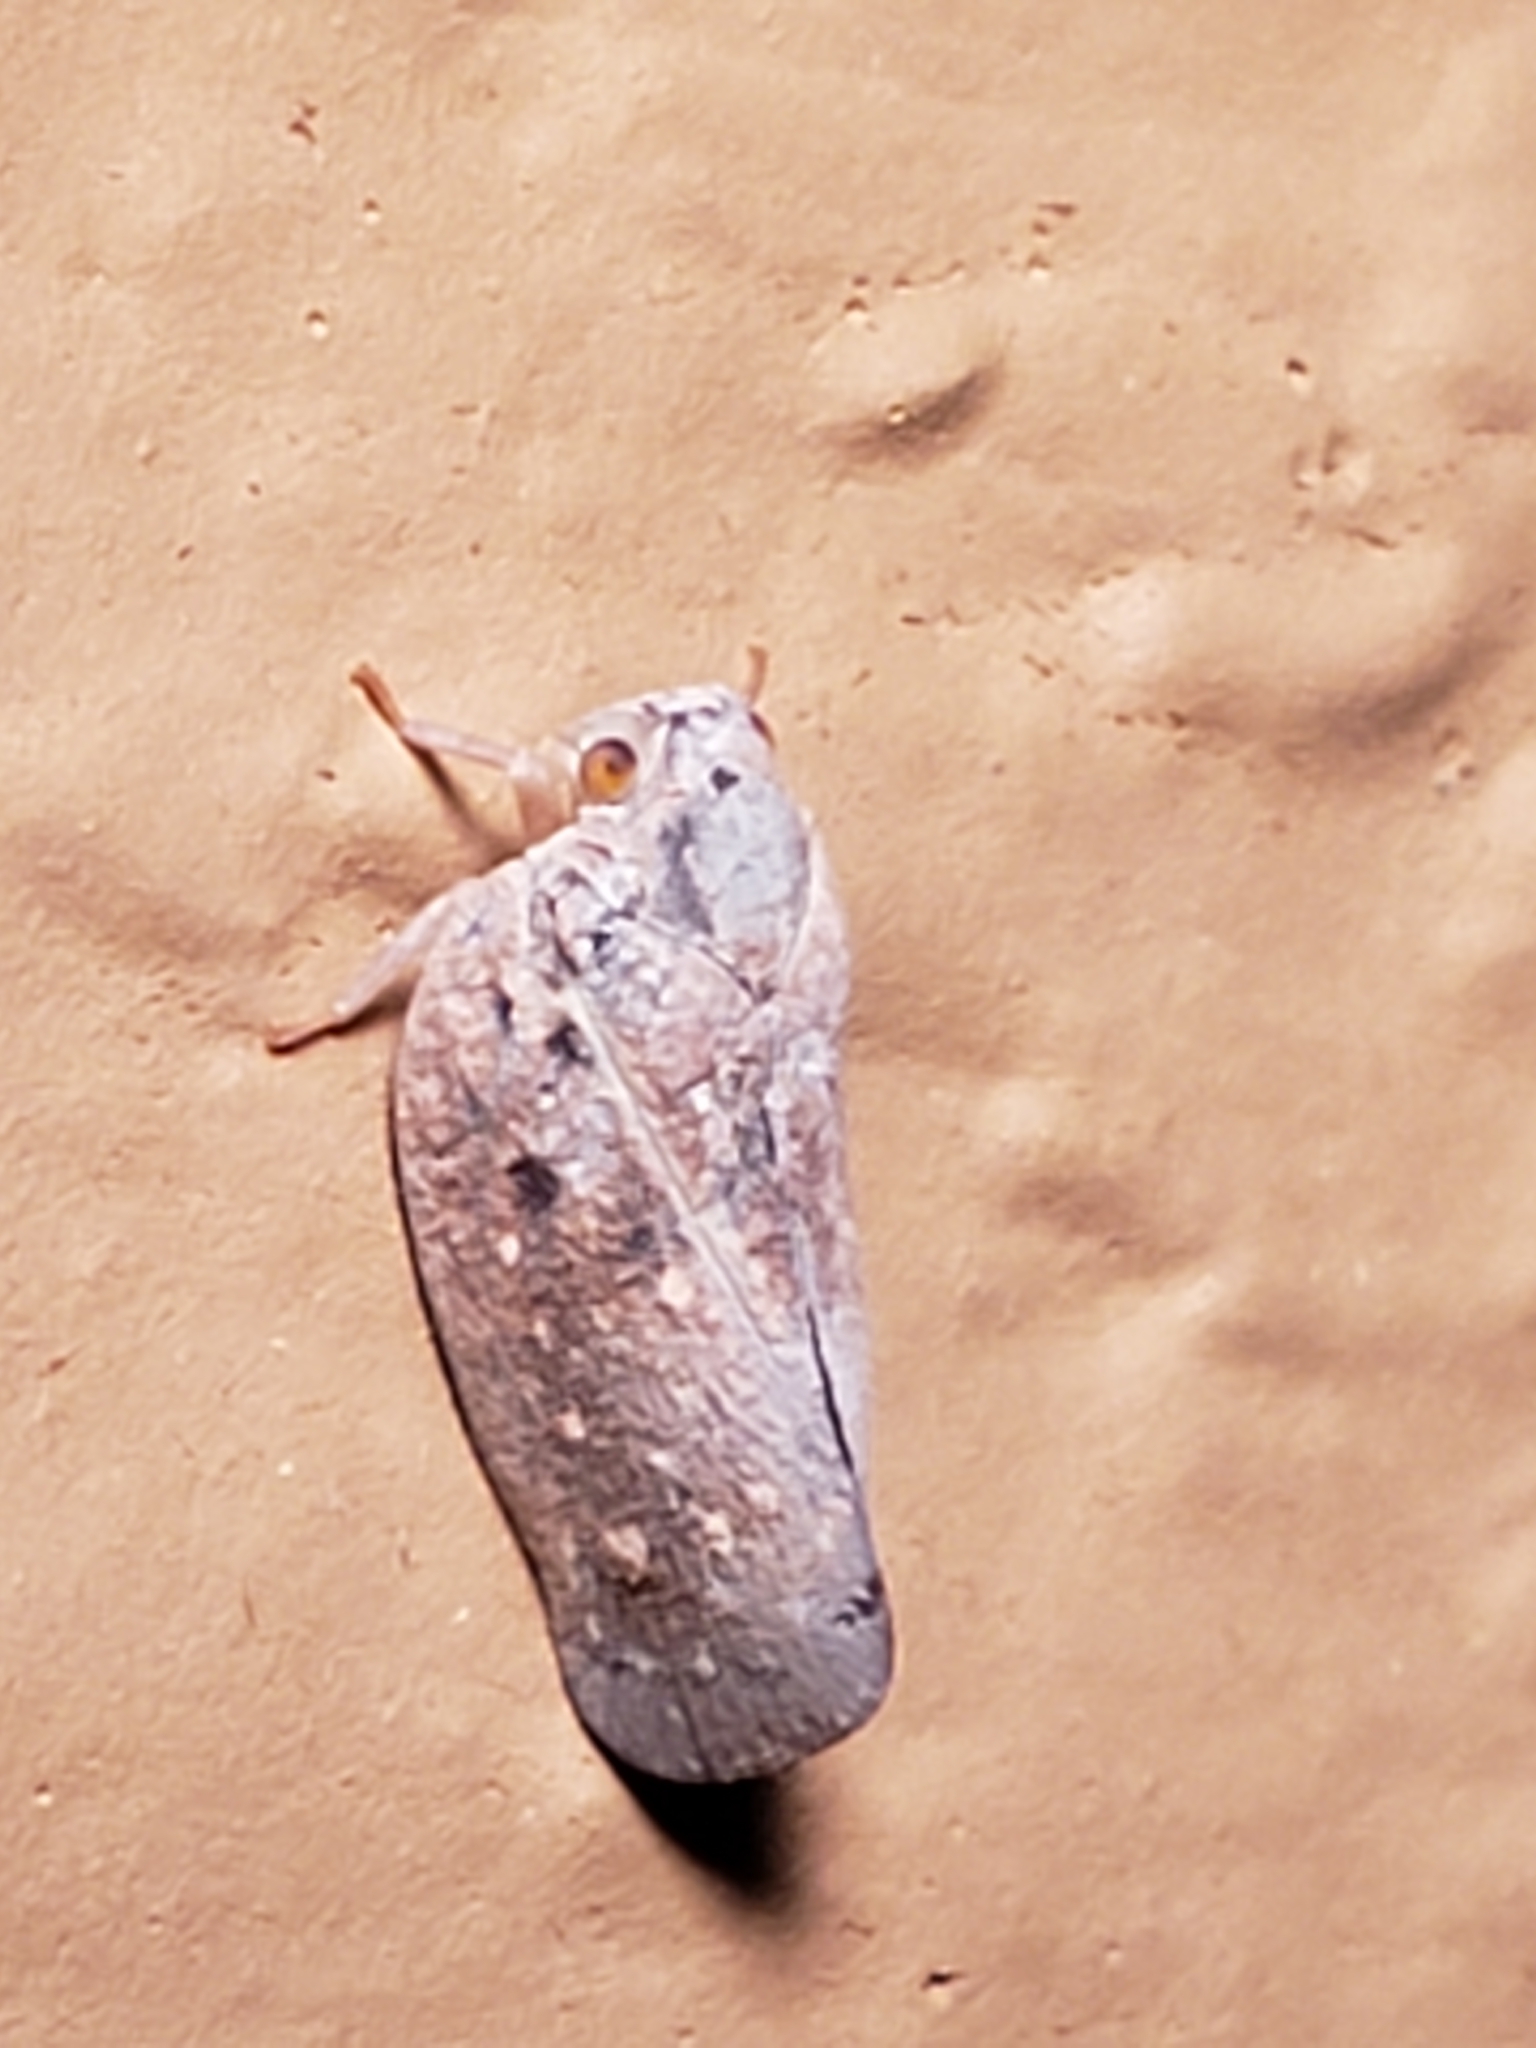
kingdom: Animalia
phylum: Arthropoda
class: Insecta
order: Hemiptera
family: Flatidae
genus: Metcalfa
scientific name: Metcalfa pruinosa
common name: Citrus flatid planthopper
